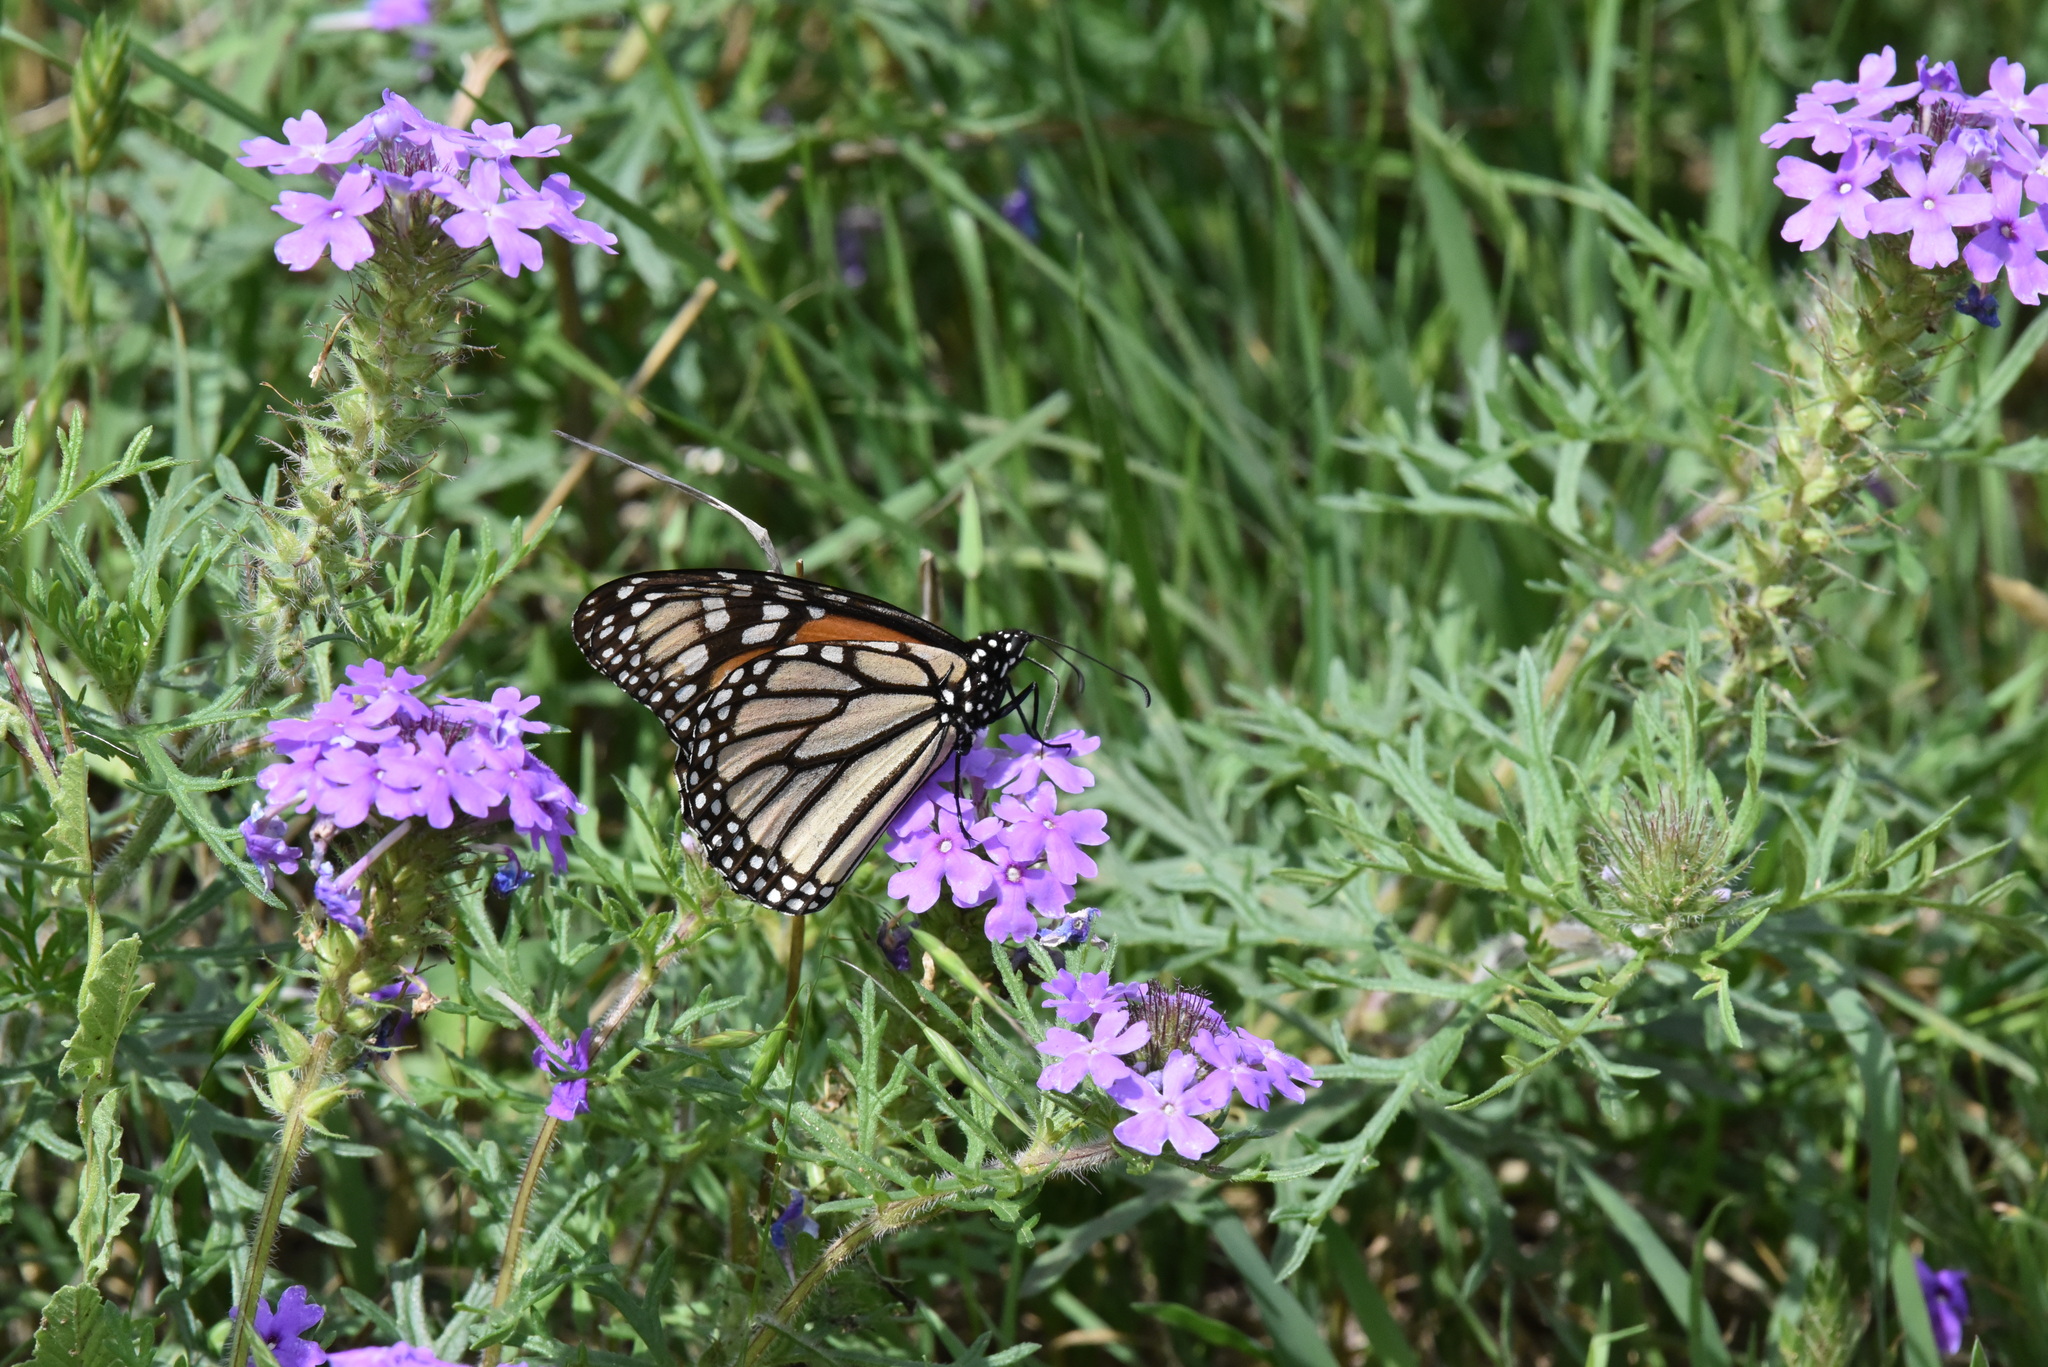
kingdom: Animalia
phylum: Arthropoda
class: Insecta
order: Lepidoptera
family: Nymphalidae
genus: Danaus
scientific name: Danaus plexippus
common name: Monarch
